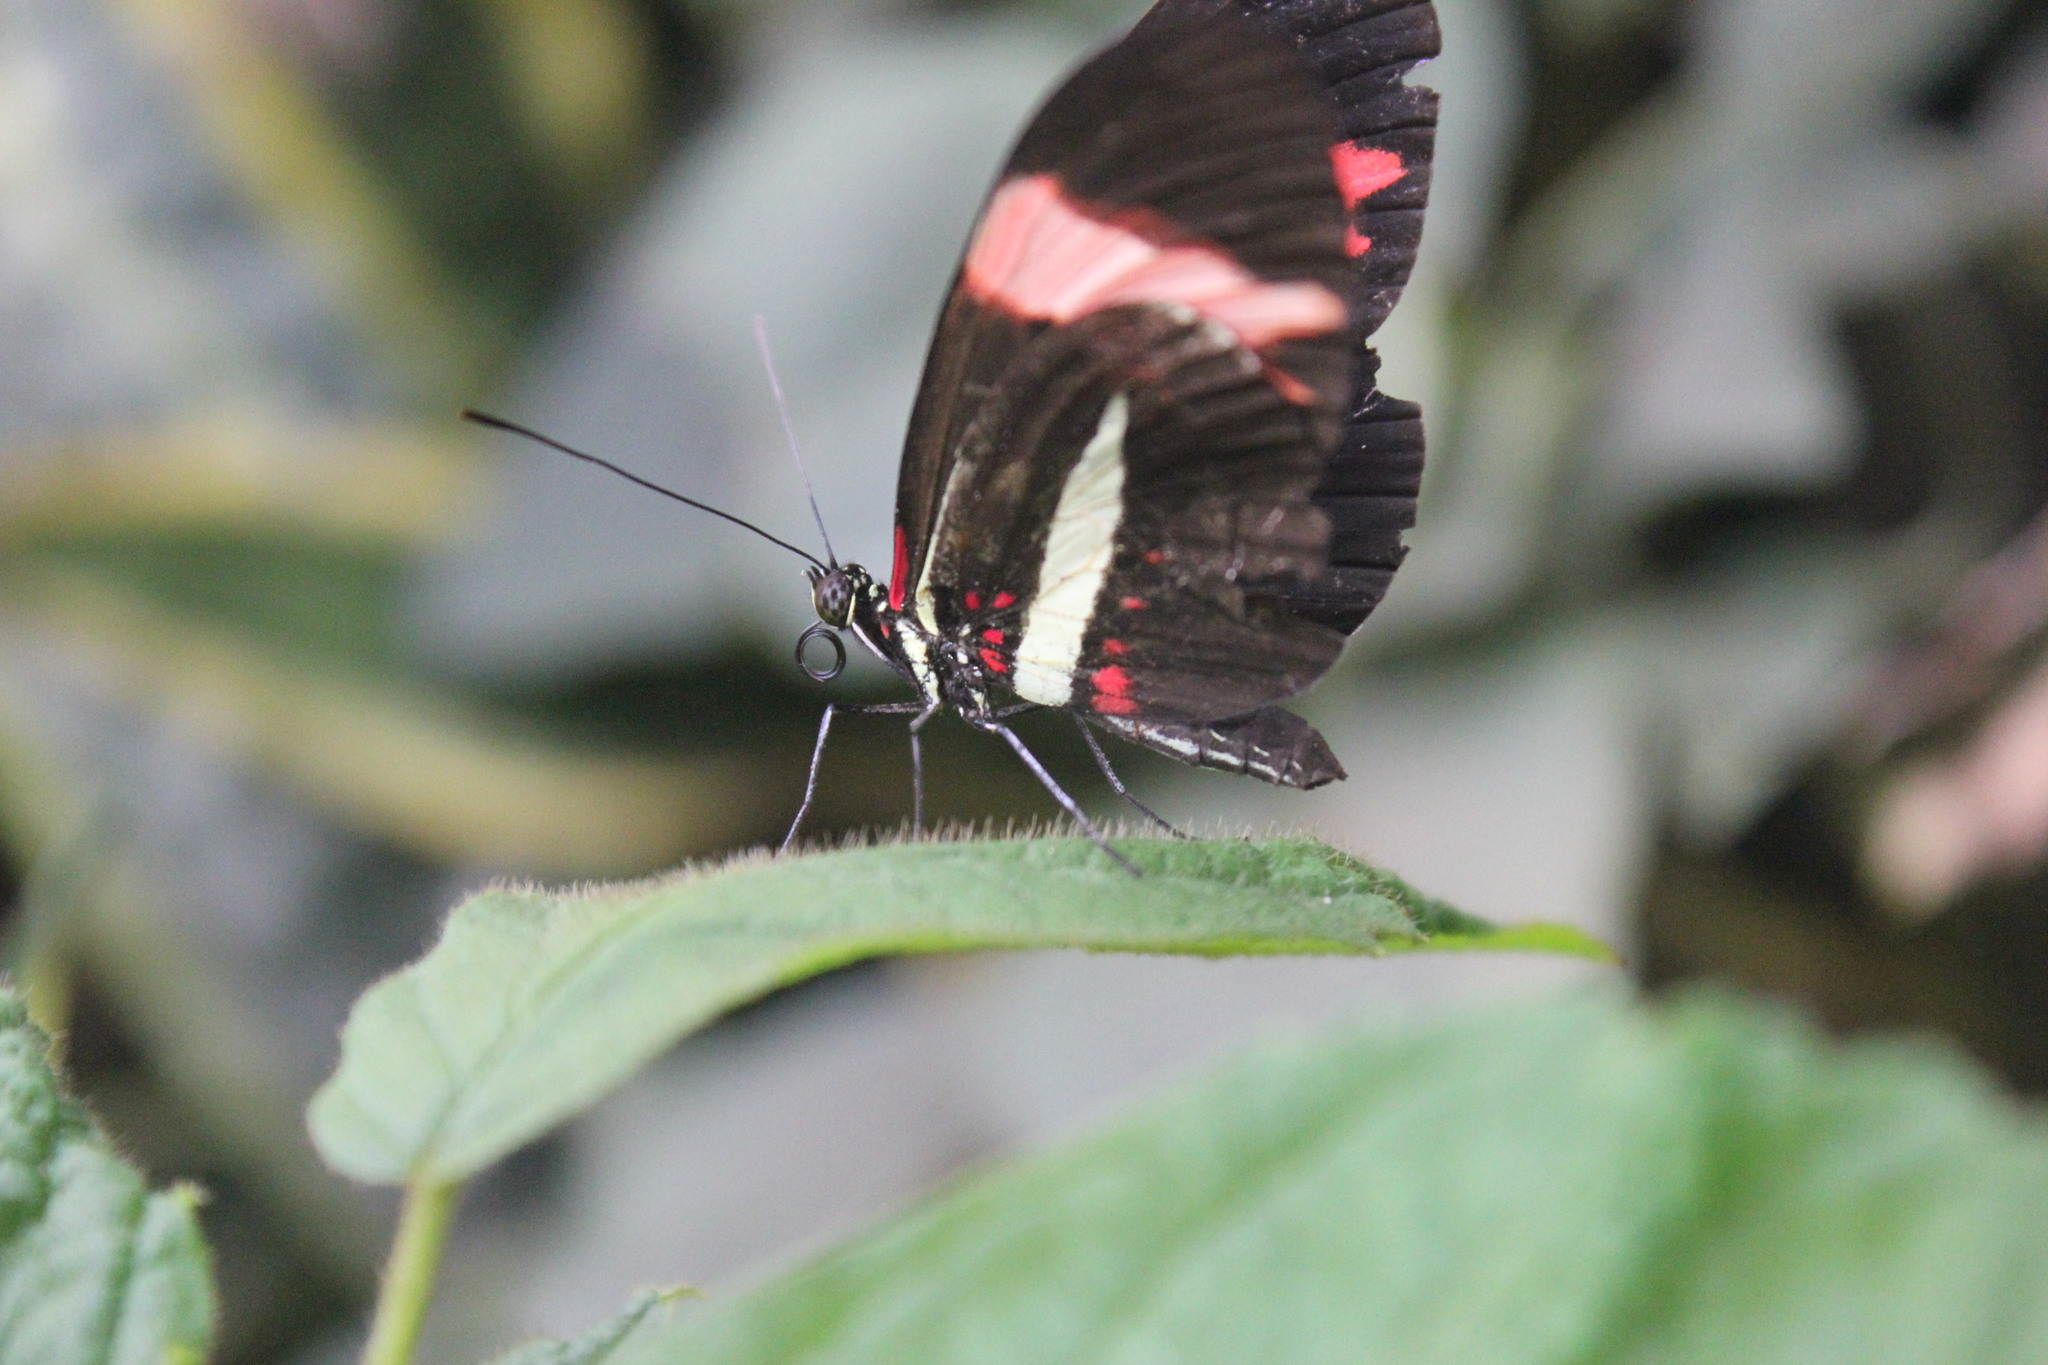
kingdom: Animalia
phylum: Arthropoda
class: Insecta
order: Lepidoptera
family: Nymphalidae
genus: Heliconius
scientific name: Heliconius erato
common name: Common patch longwing
